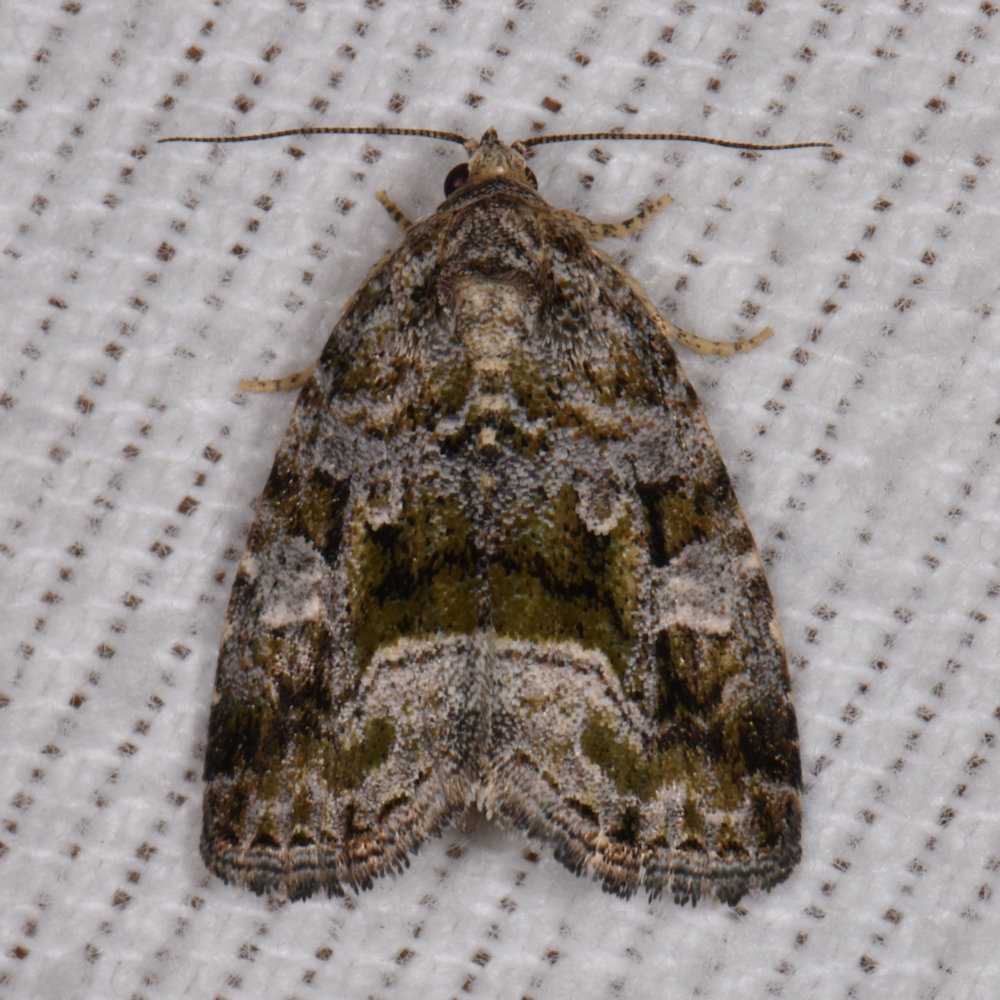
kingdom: Animalia
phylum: Arthropoda
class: Insecta
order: Lepidoptera
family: Noctuidae
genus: Protodeltote
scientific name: Protodeltote muscosula
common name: Large mossy glyph
